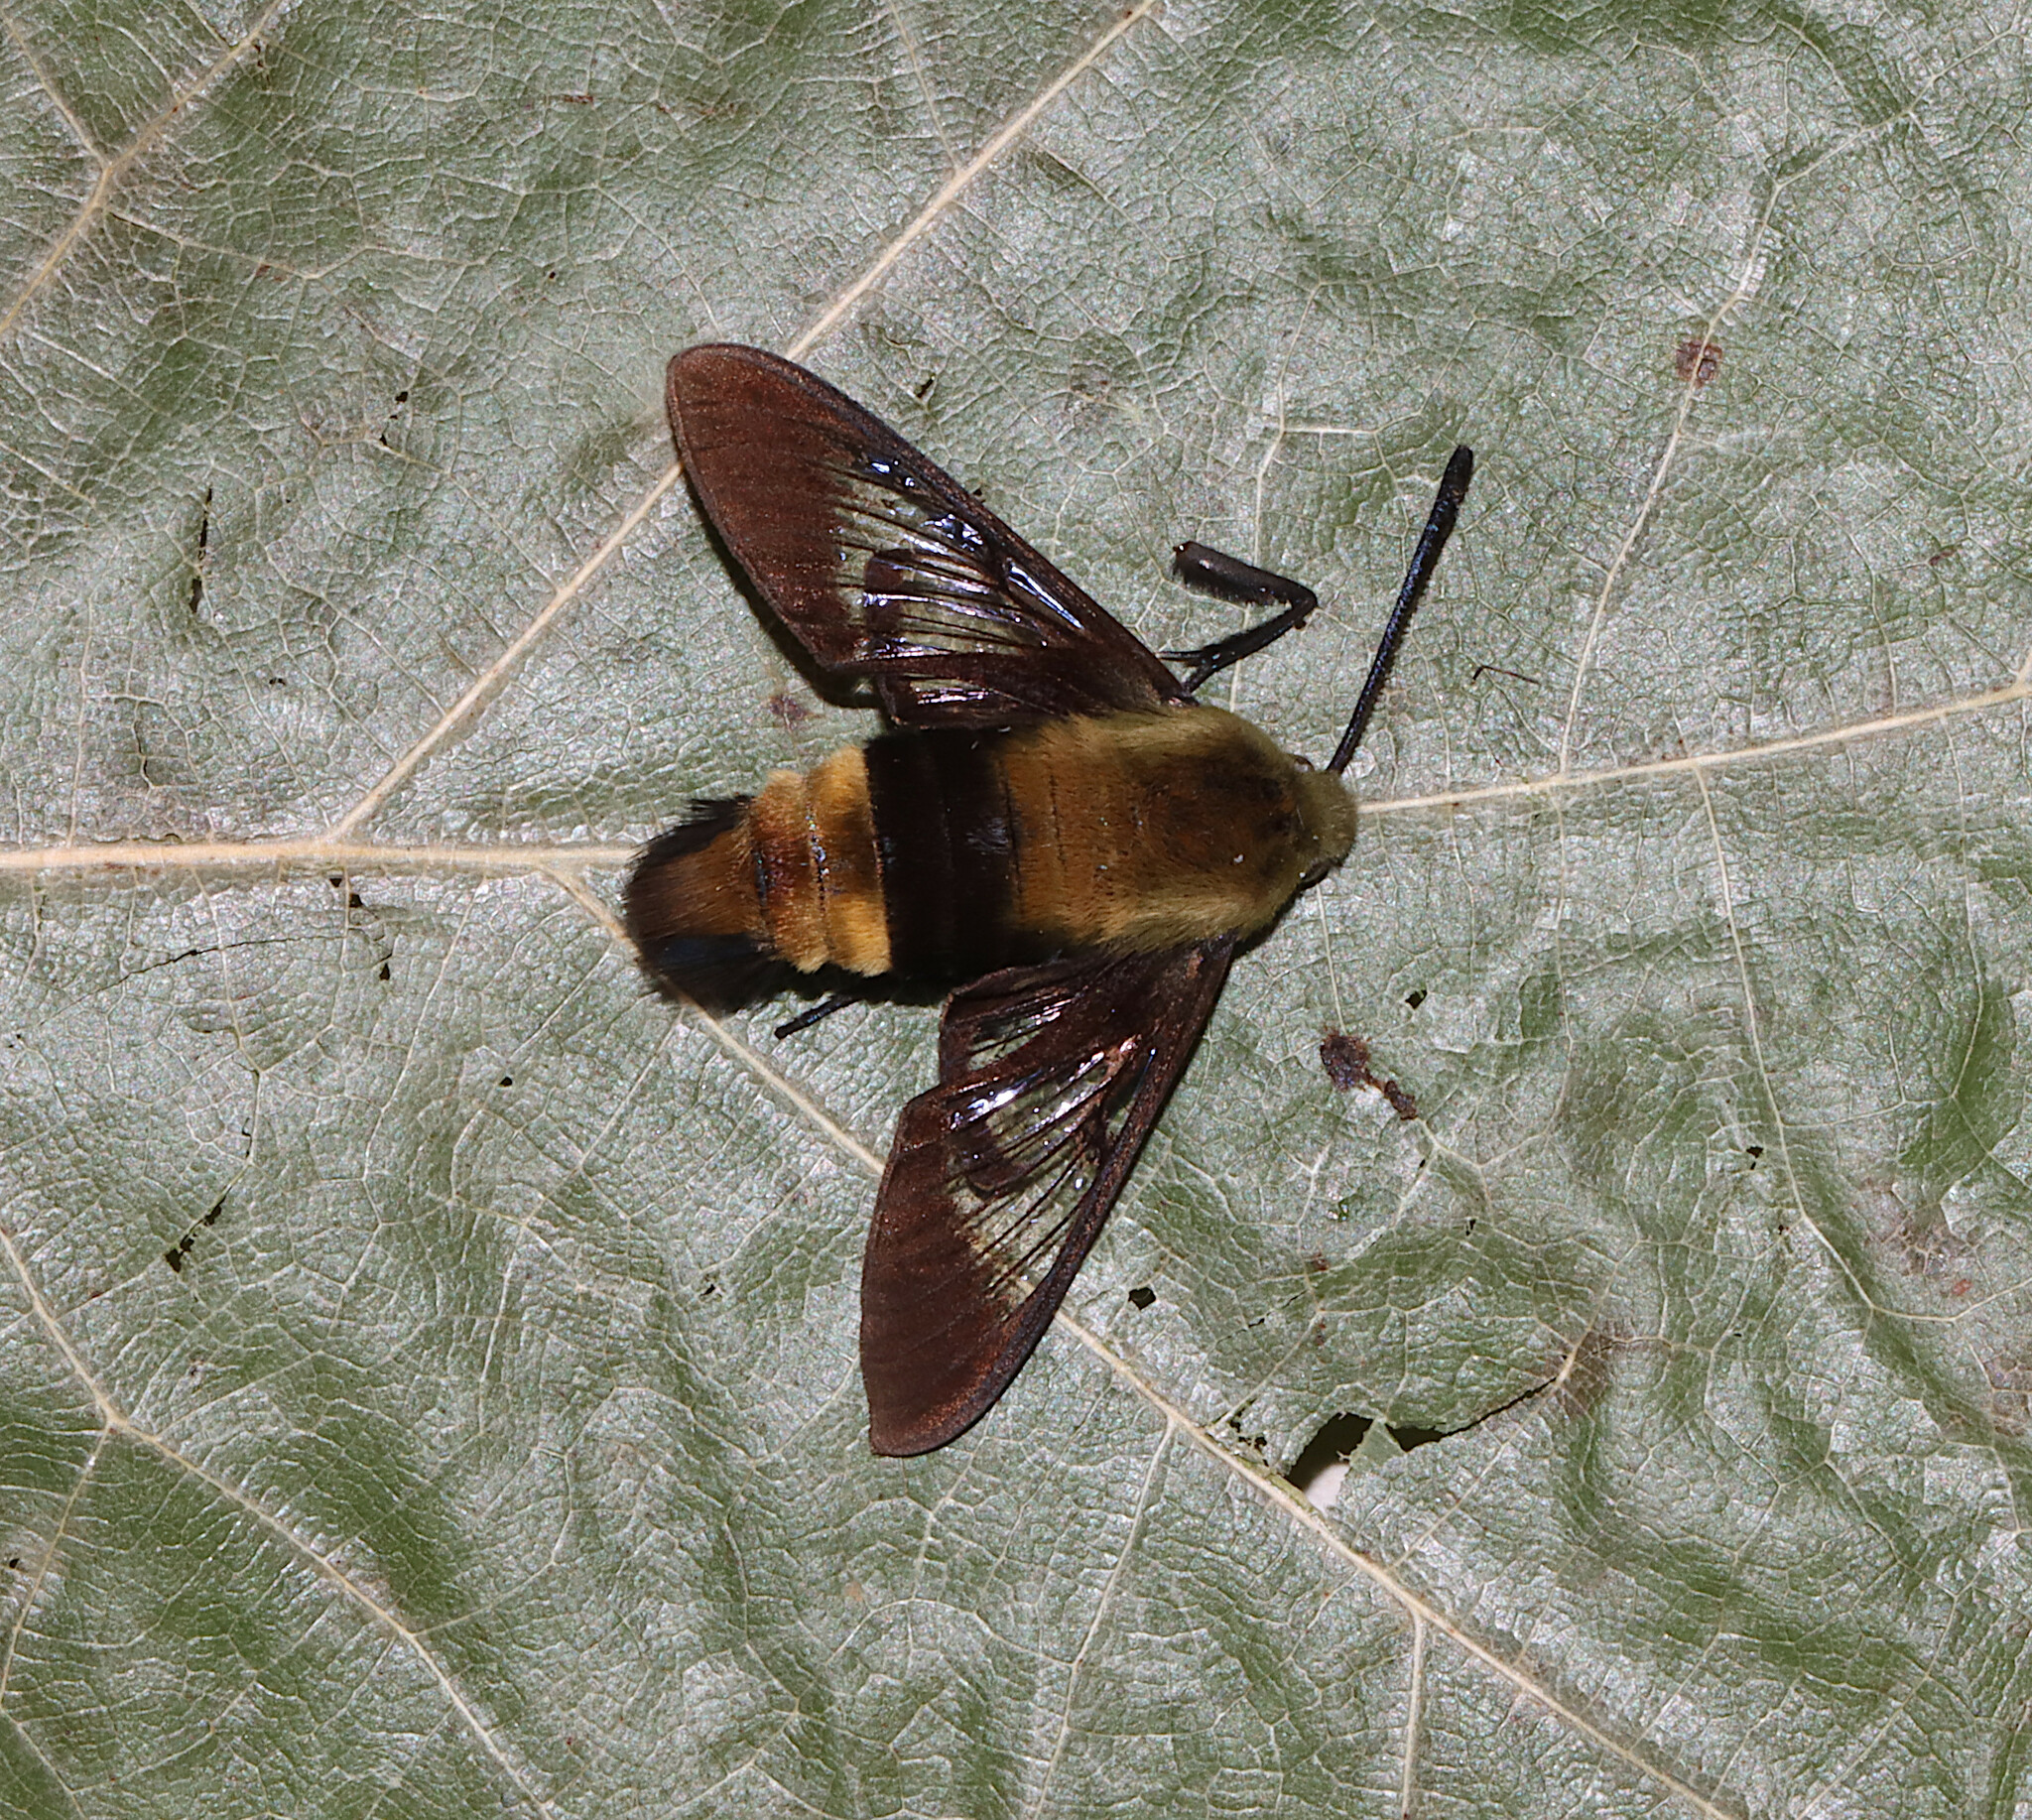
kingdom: Animalia
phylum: Arthropoda
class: Insecta
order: Lepidoptera
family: Sphingidae
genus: Hemaris
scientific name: Hemaris diffinis
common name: Bumblebee moth
